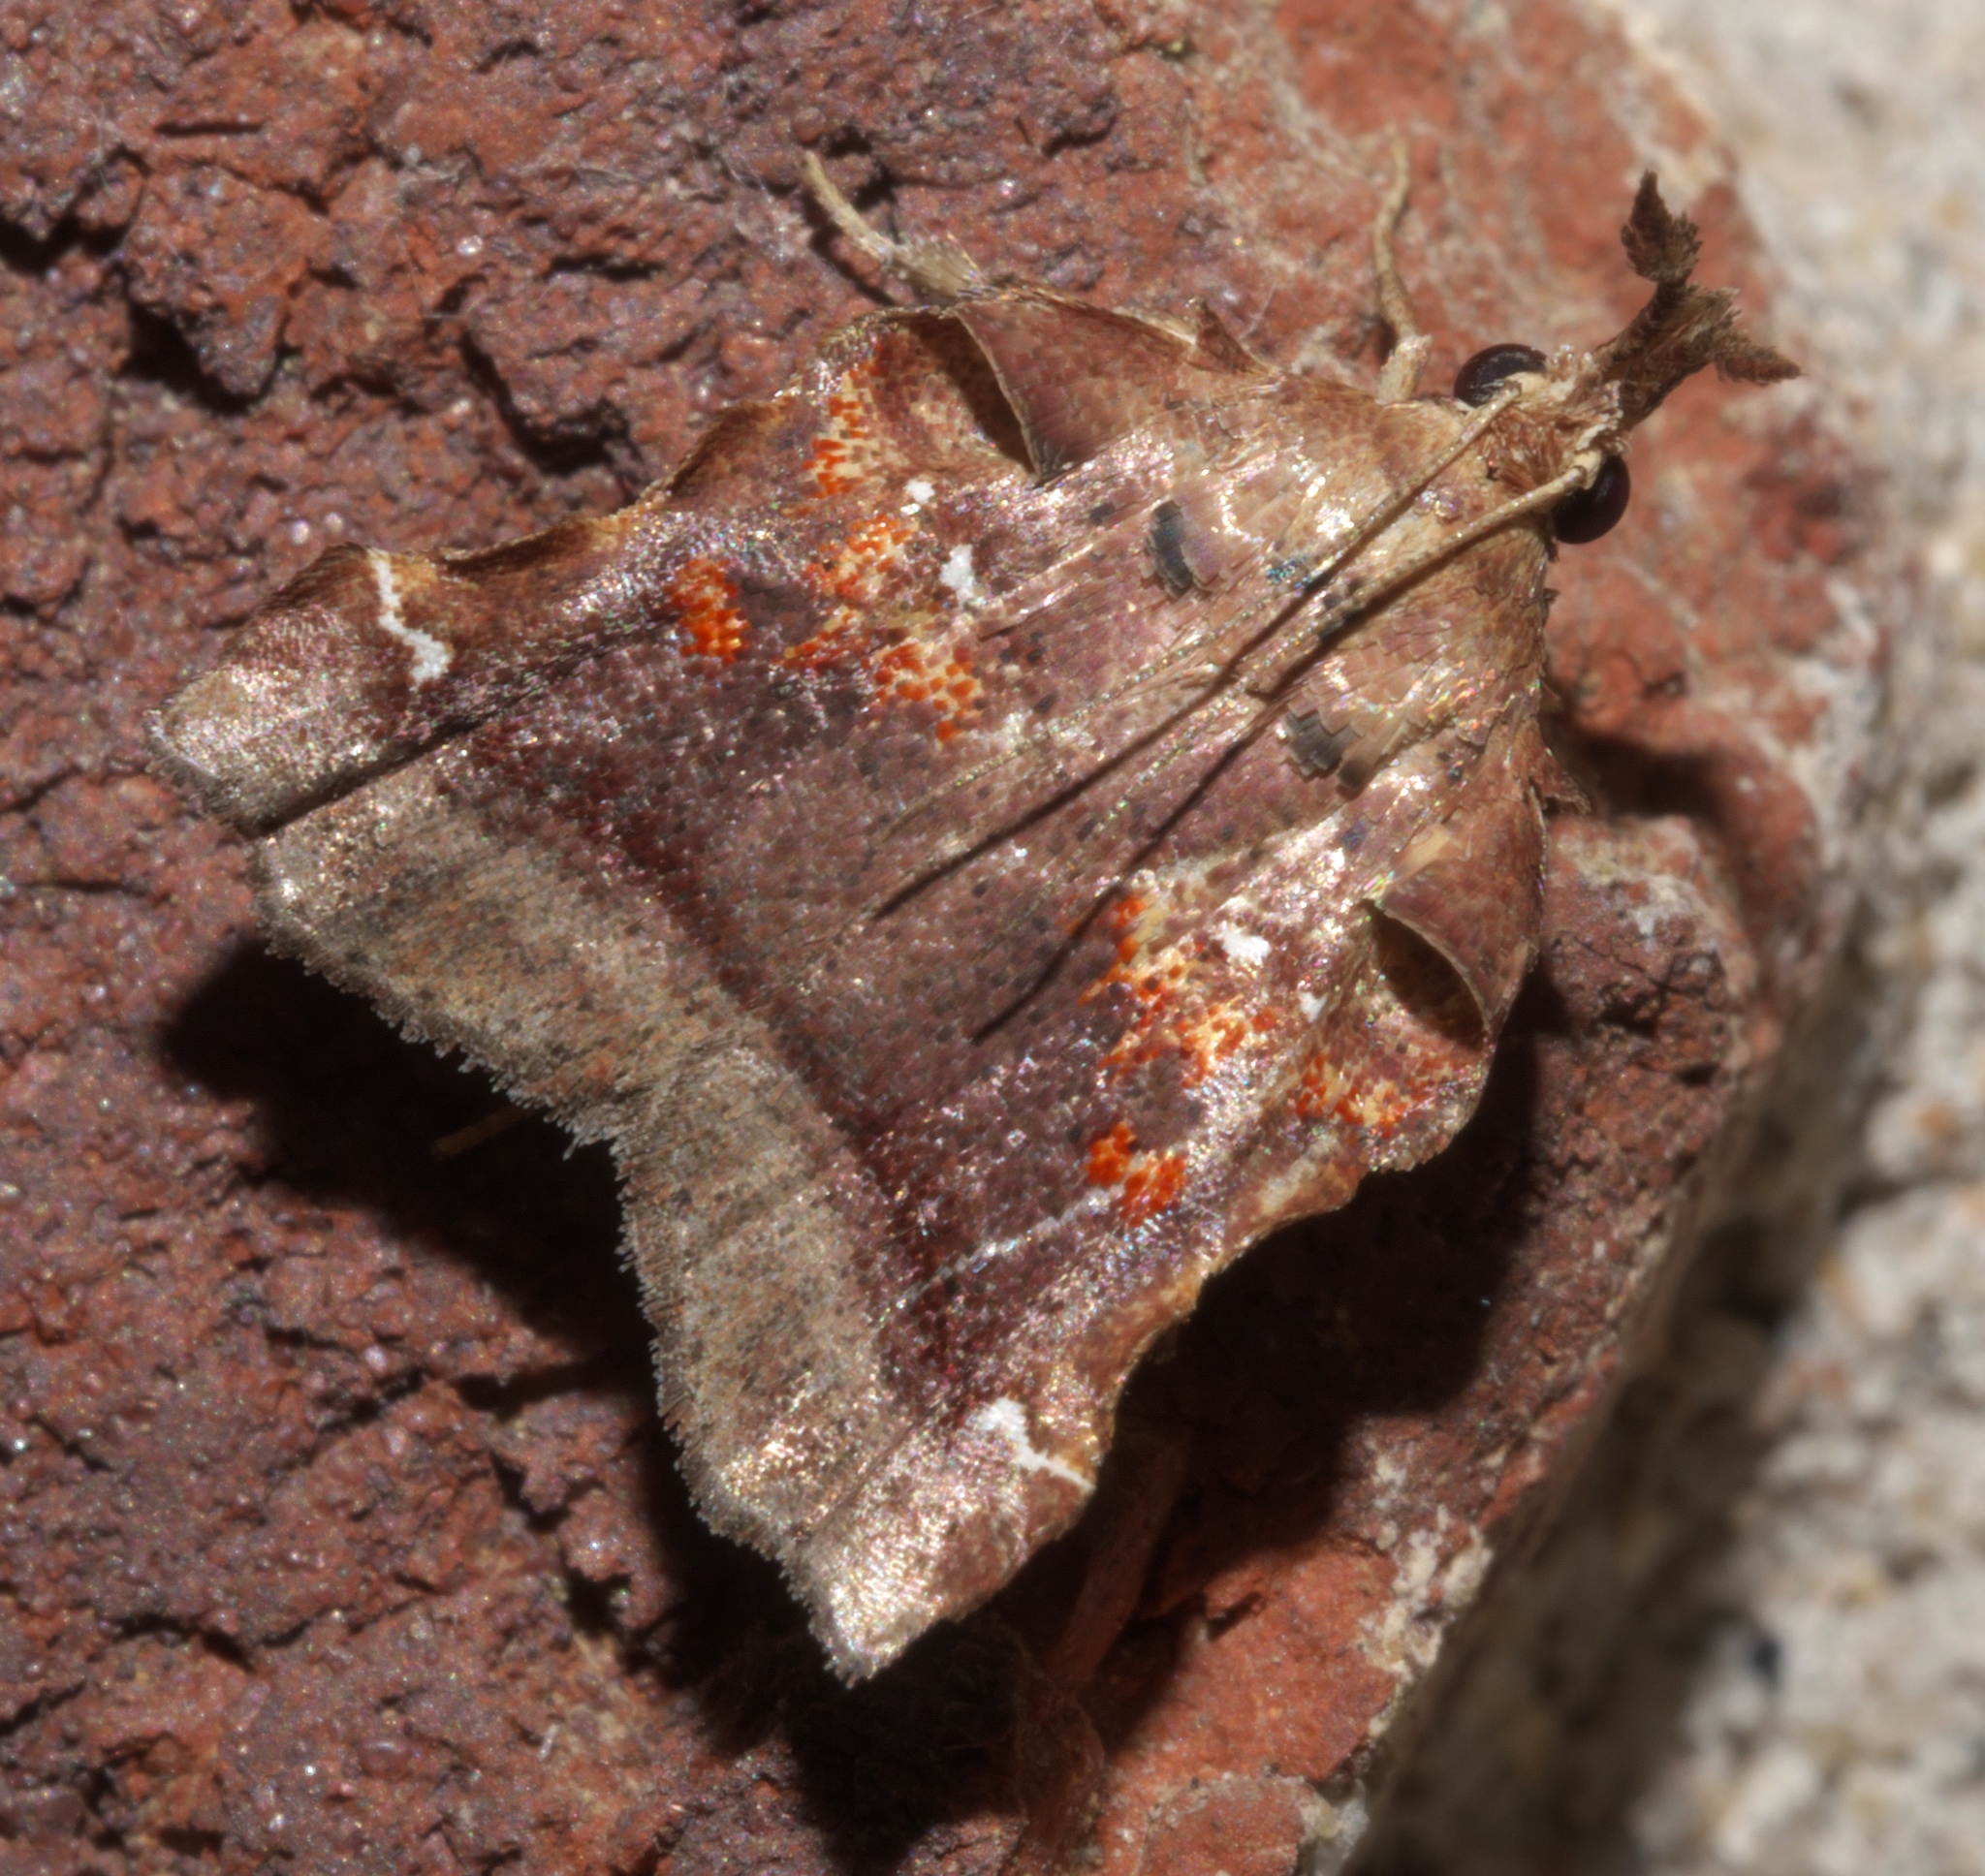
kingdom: Animalia
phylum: Arthropoda
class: Insecta
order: Lepidoptera
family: Pyralidae
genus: Clydonopteron
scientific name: Clydonopteron sacculana
